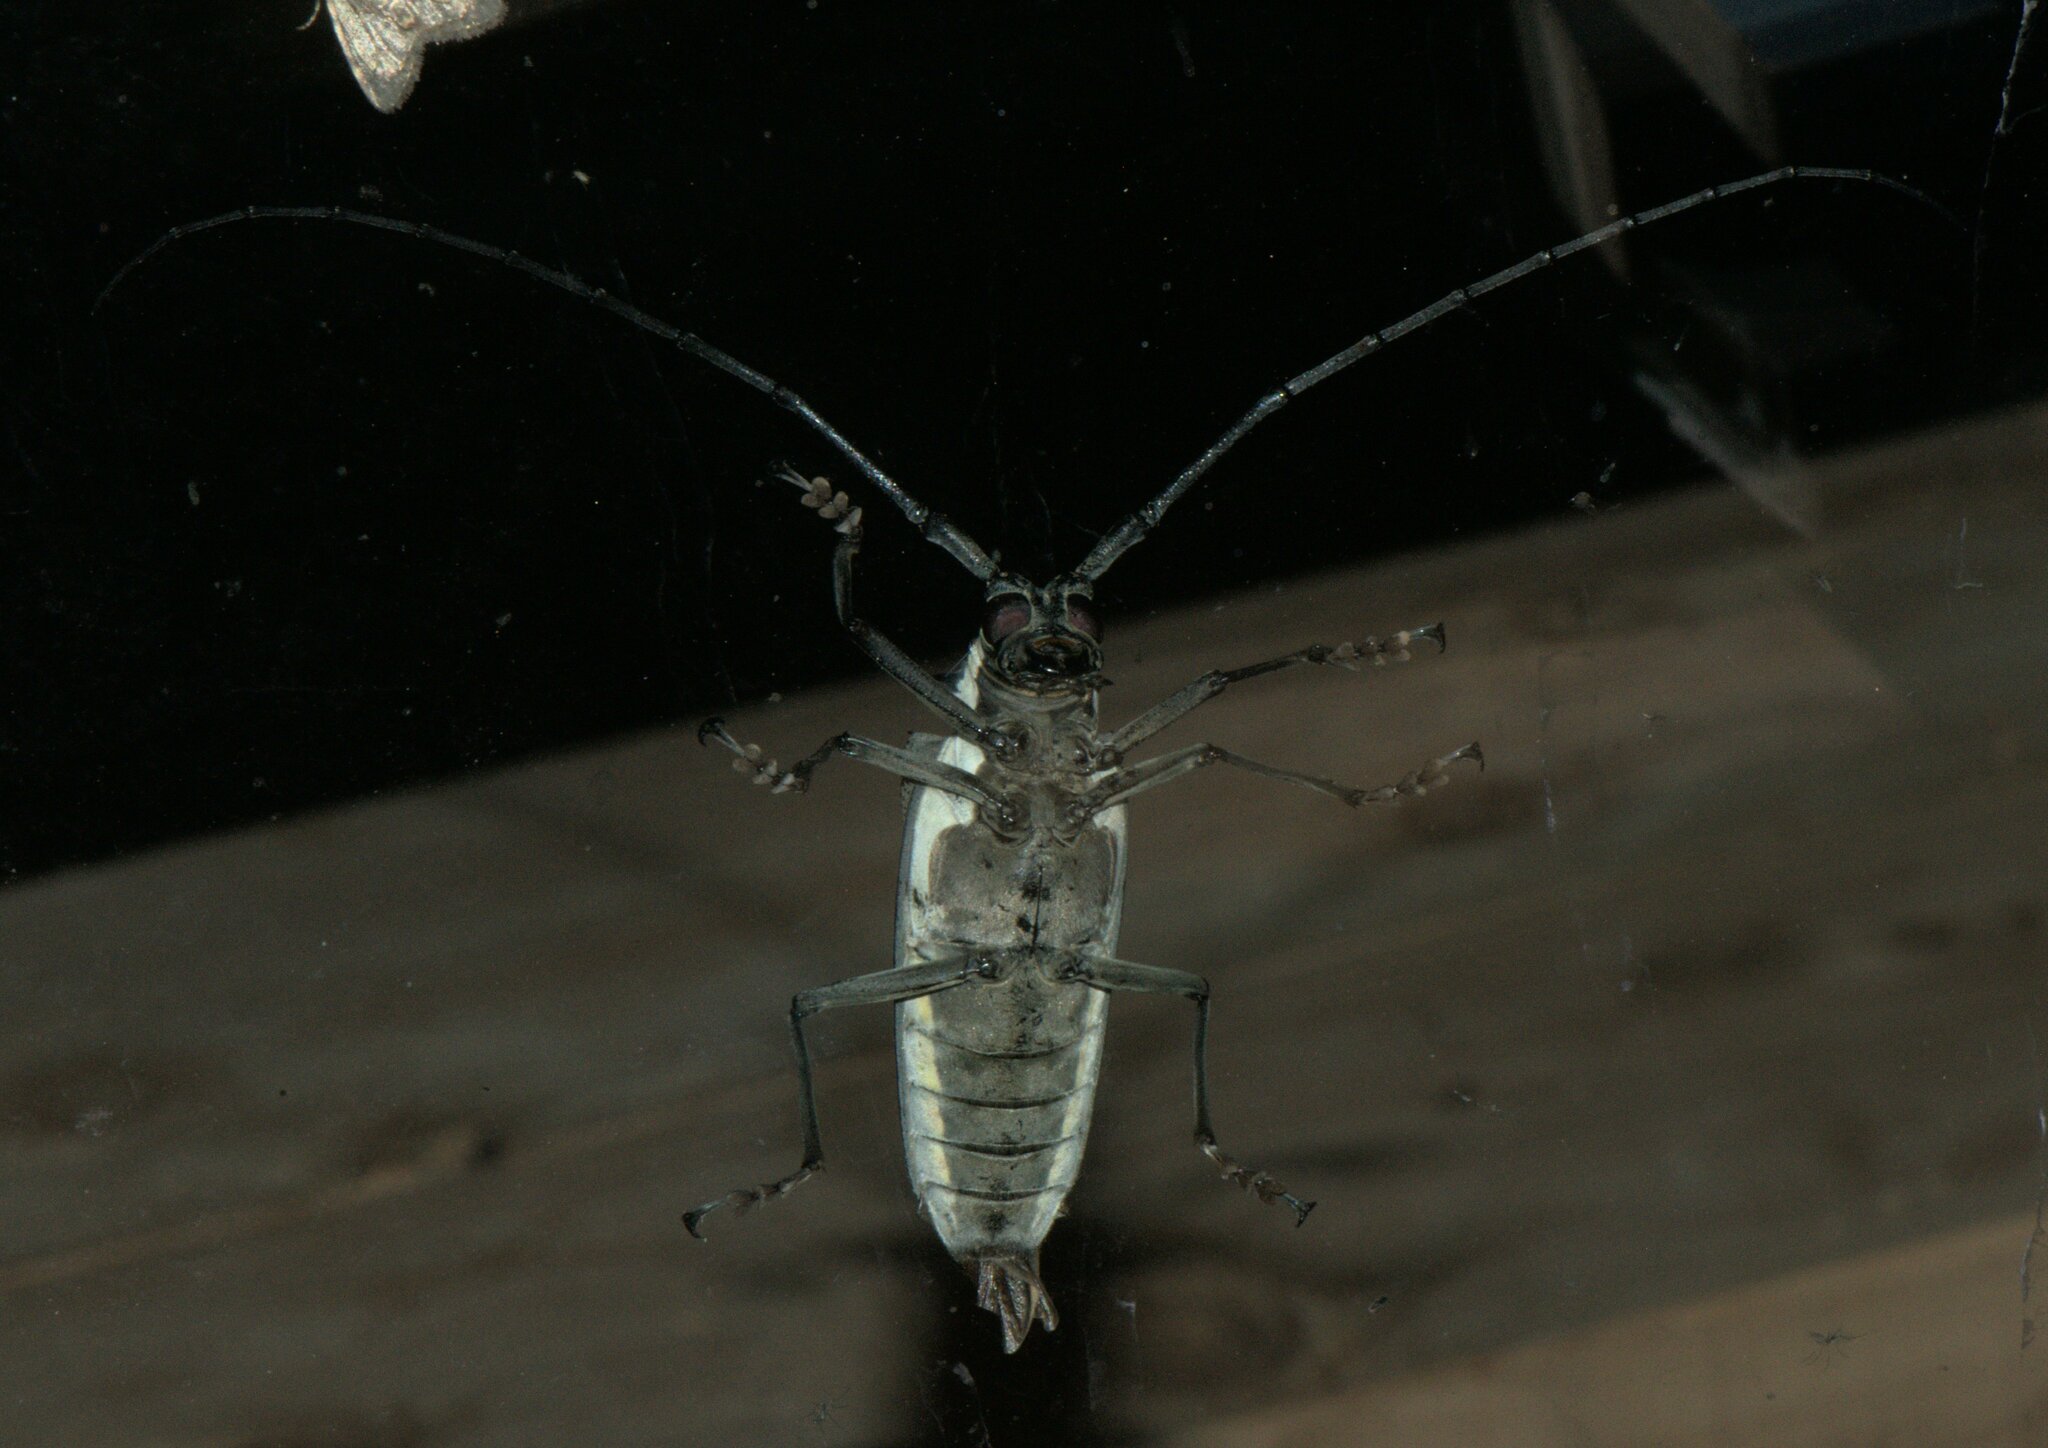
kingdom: Animalia
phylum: Arthropoda
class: Insecta
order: Coleoptera
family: Cerambycidae
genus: Batocera
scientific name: Batocera horsfieldi
